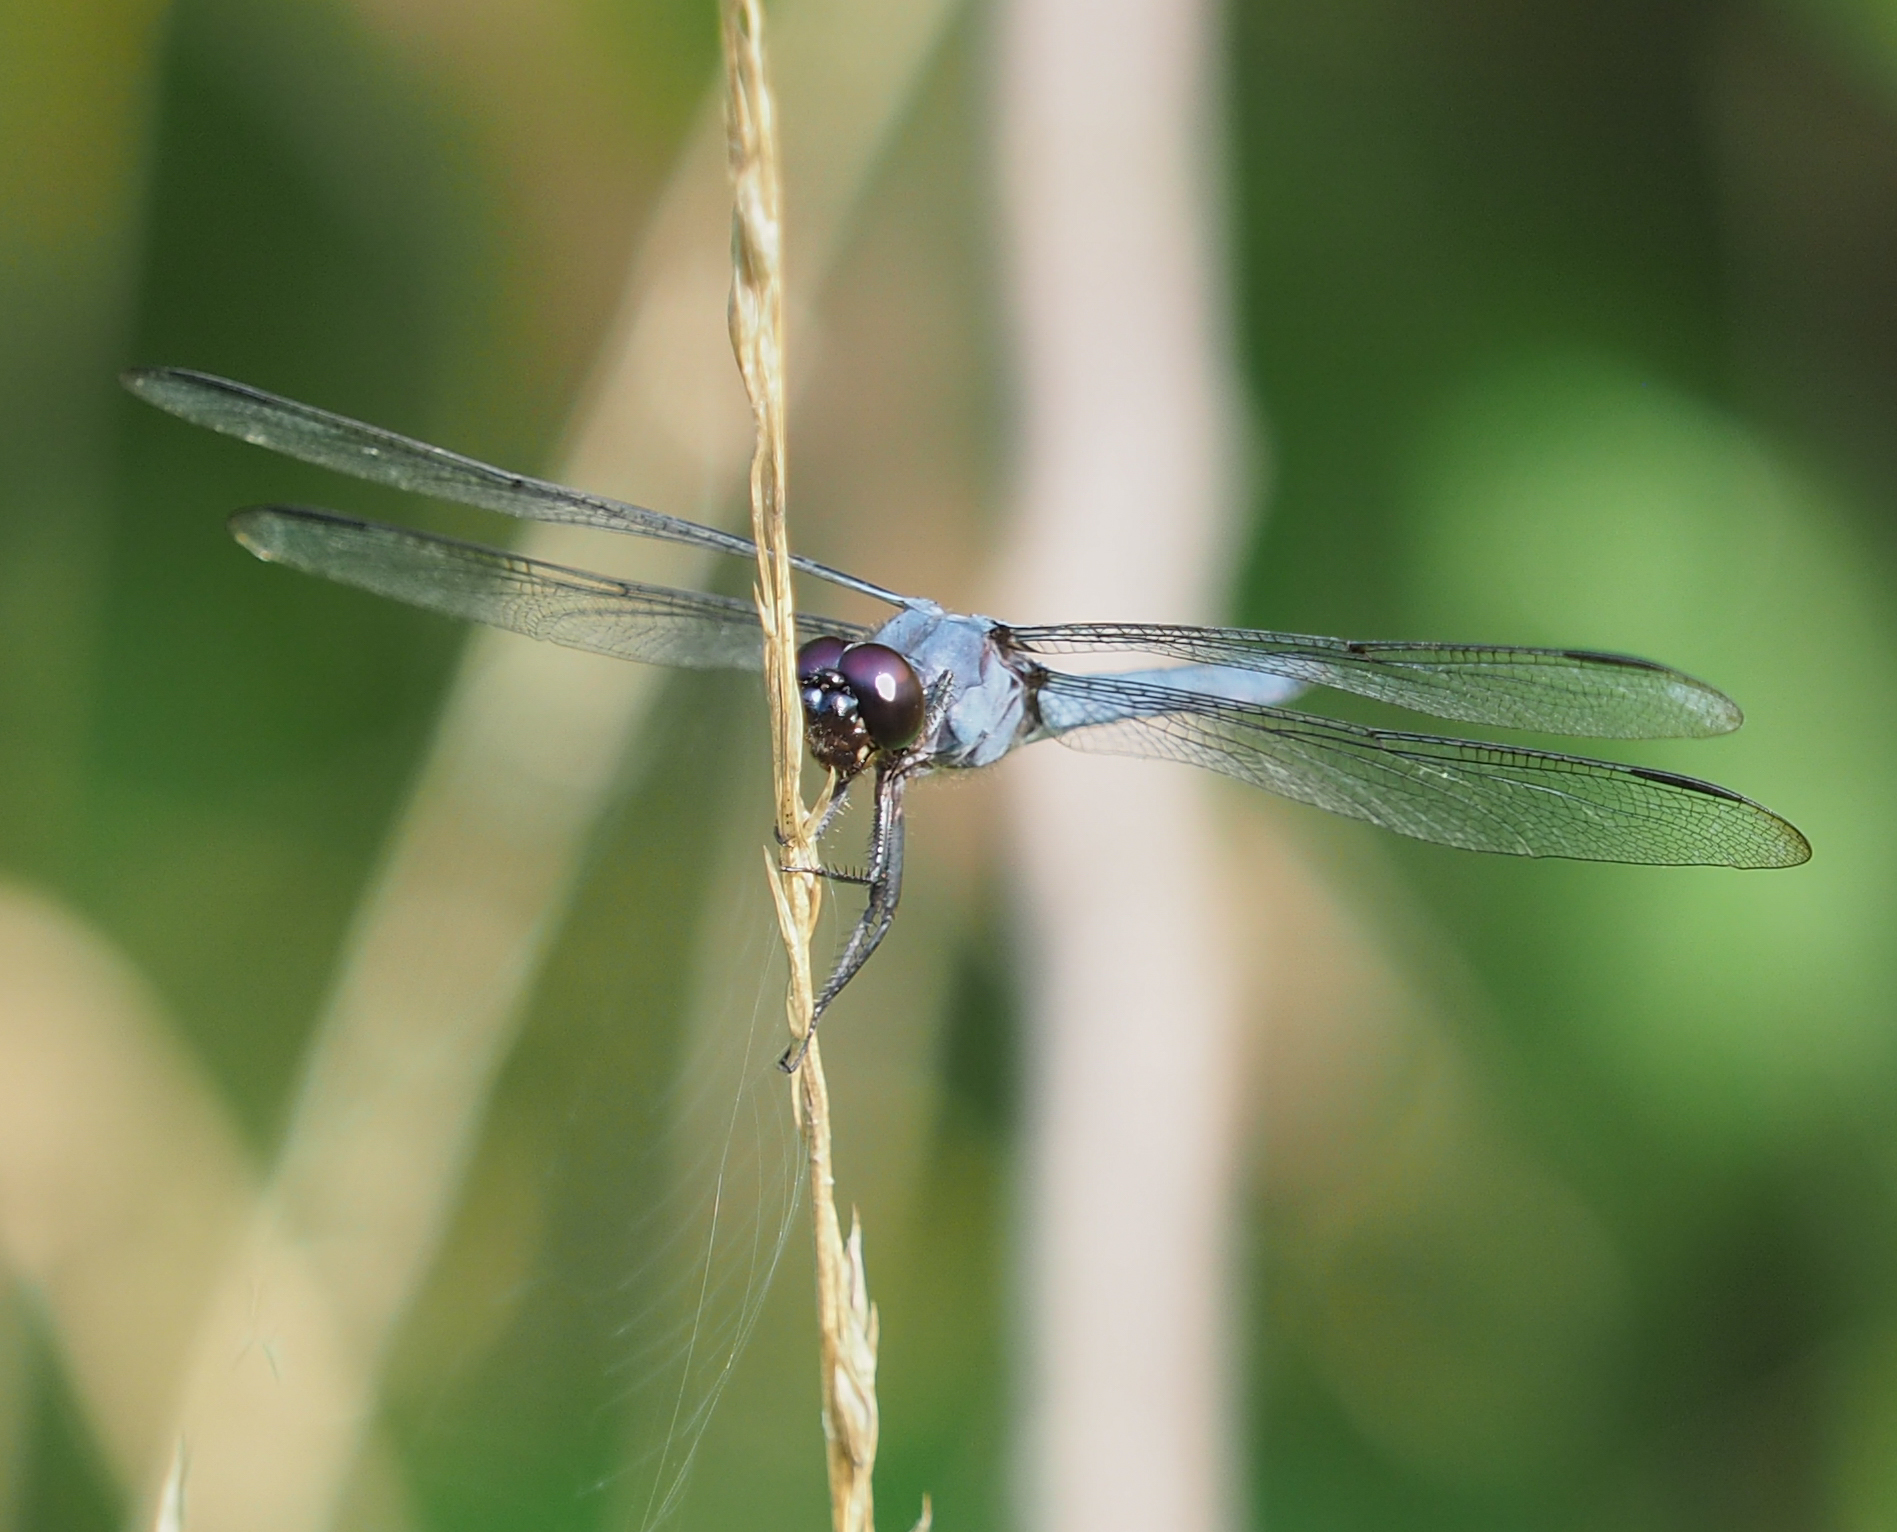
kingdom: Animalia
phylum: Arthropoda
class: Insecta
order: Odonata
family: Libellulidae
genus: Libellula
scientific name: Libellula incesta
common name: Slaty skimmer
